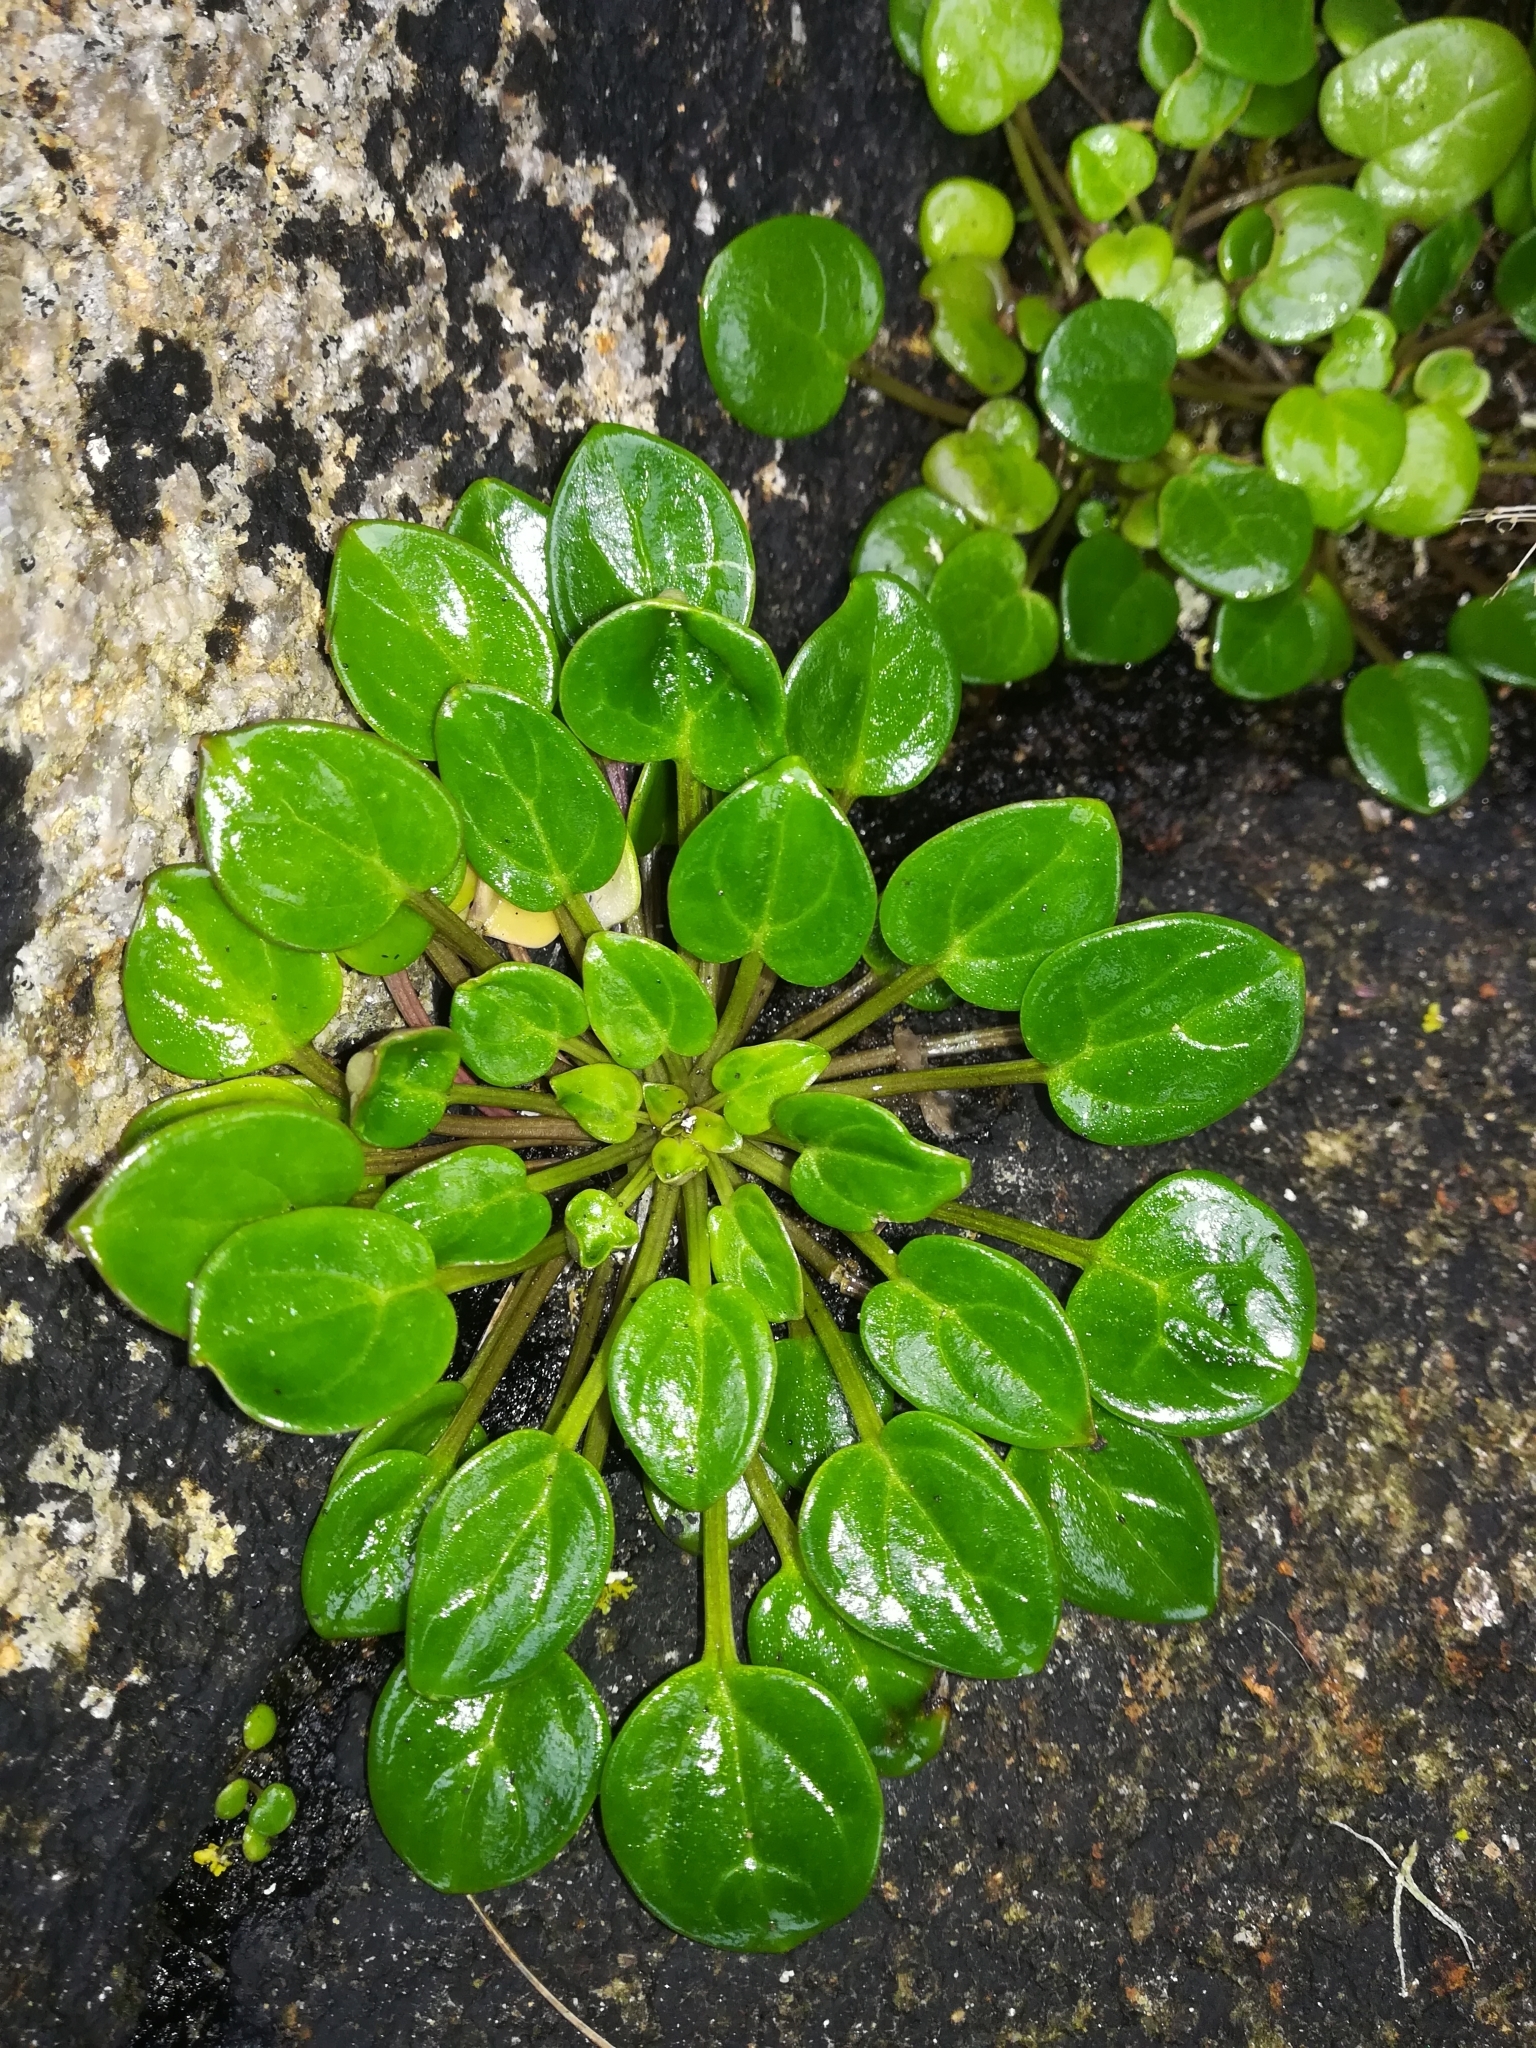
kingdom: Plantae
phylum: Tracheophyta
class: Magnoliopsida
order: Brassicales
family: Brassicaceae
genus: Cochlearia
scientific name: Cochlearia officinalis
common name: Scurvy-grass
